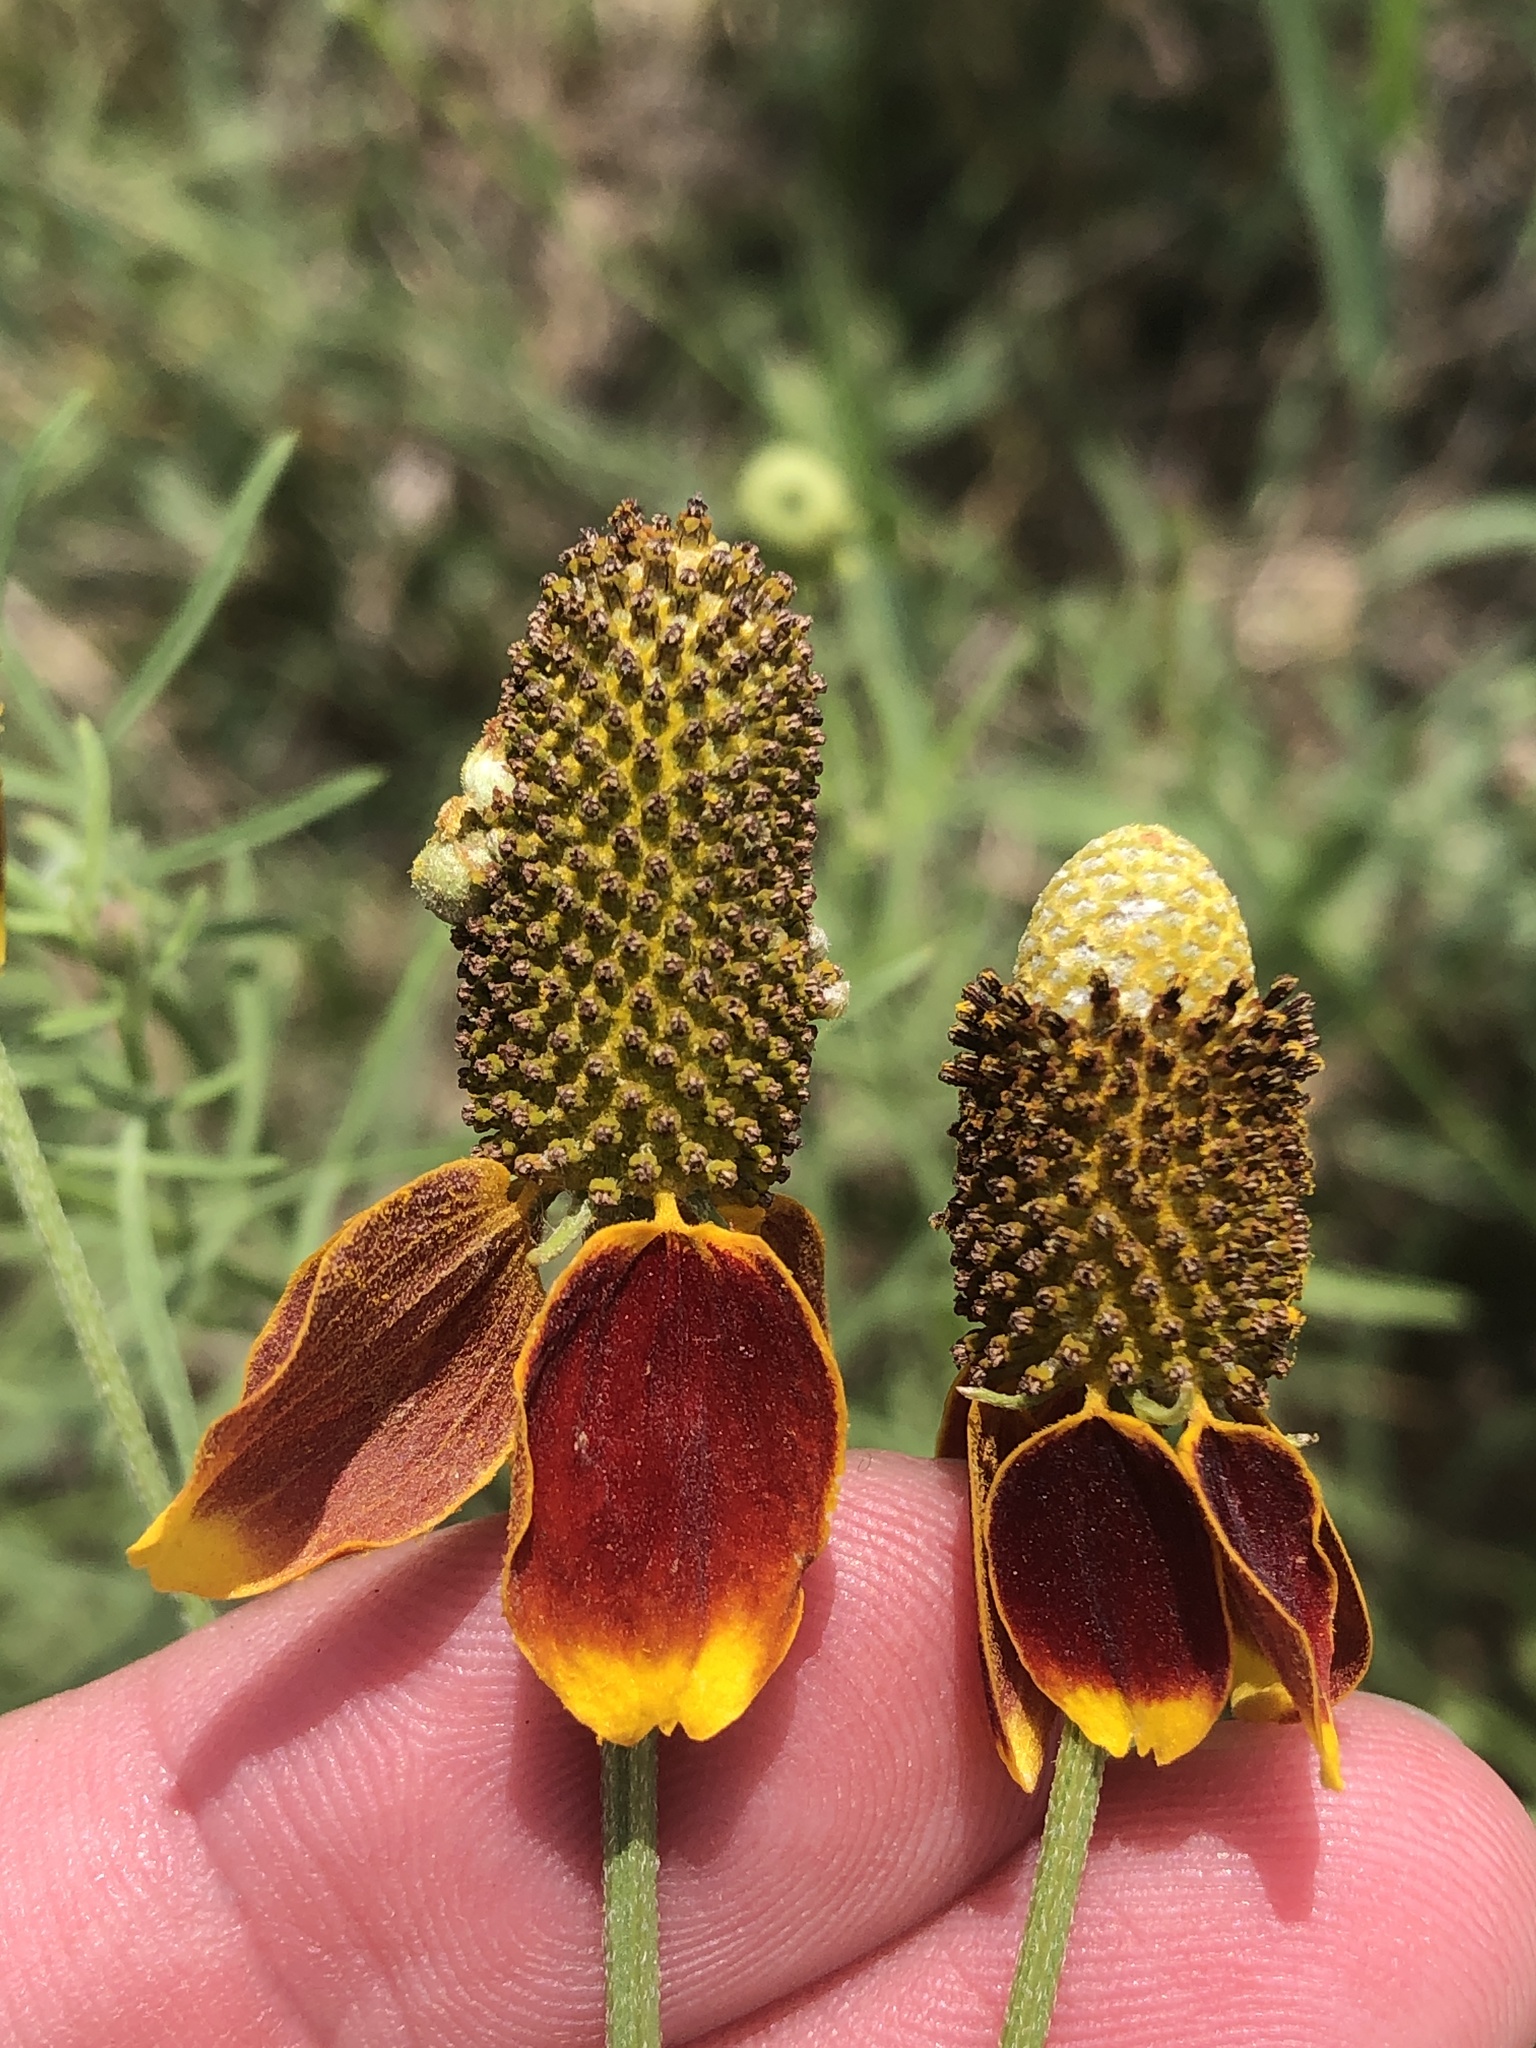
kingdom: Plantae
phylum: Tracheophyta
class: Magnoliopsida
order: Asterales
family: Asteraceae
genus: Ratibida
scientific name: Ratibida columnifera
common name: Prairie coneflower
